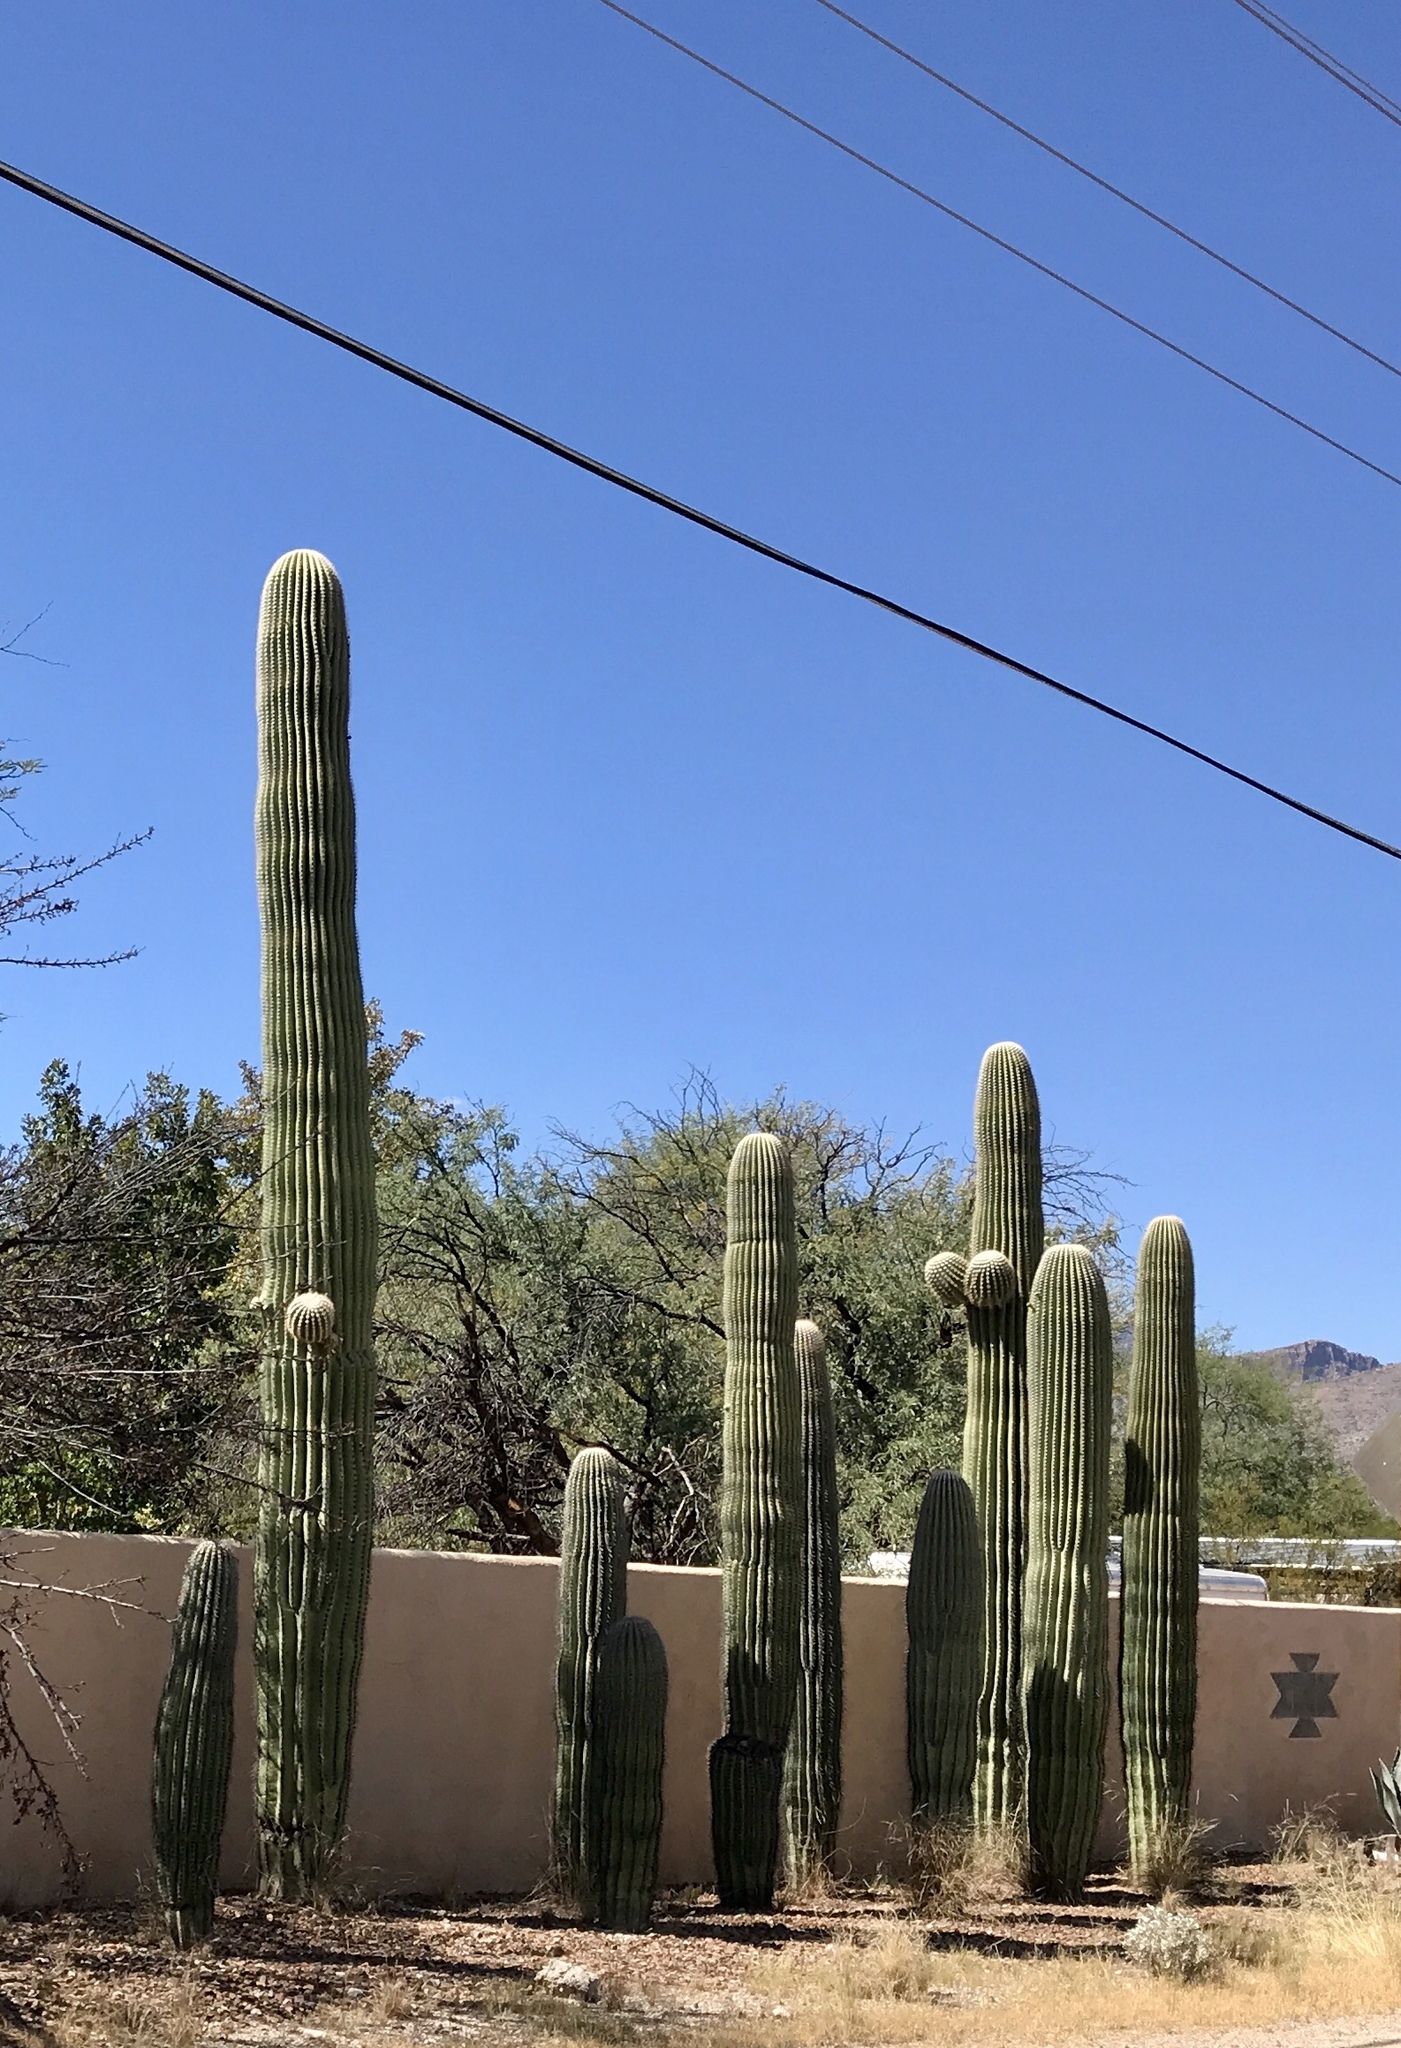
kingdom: Plantae
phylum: Tracheophyta
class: Magnoliopsida
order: Caryophyllales
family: Cactaceae
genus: Carnegiea
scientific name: Carnegiea gigantea
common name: Saguaro
